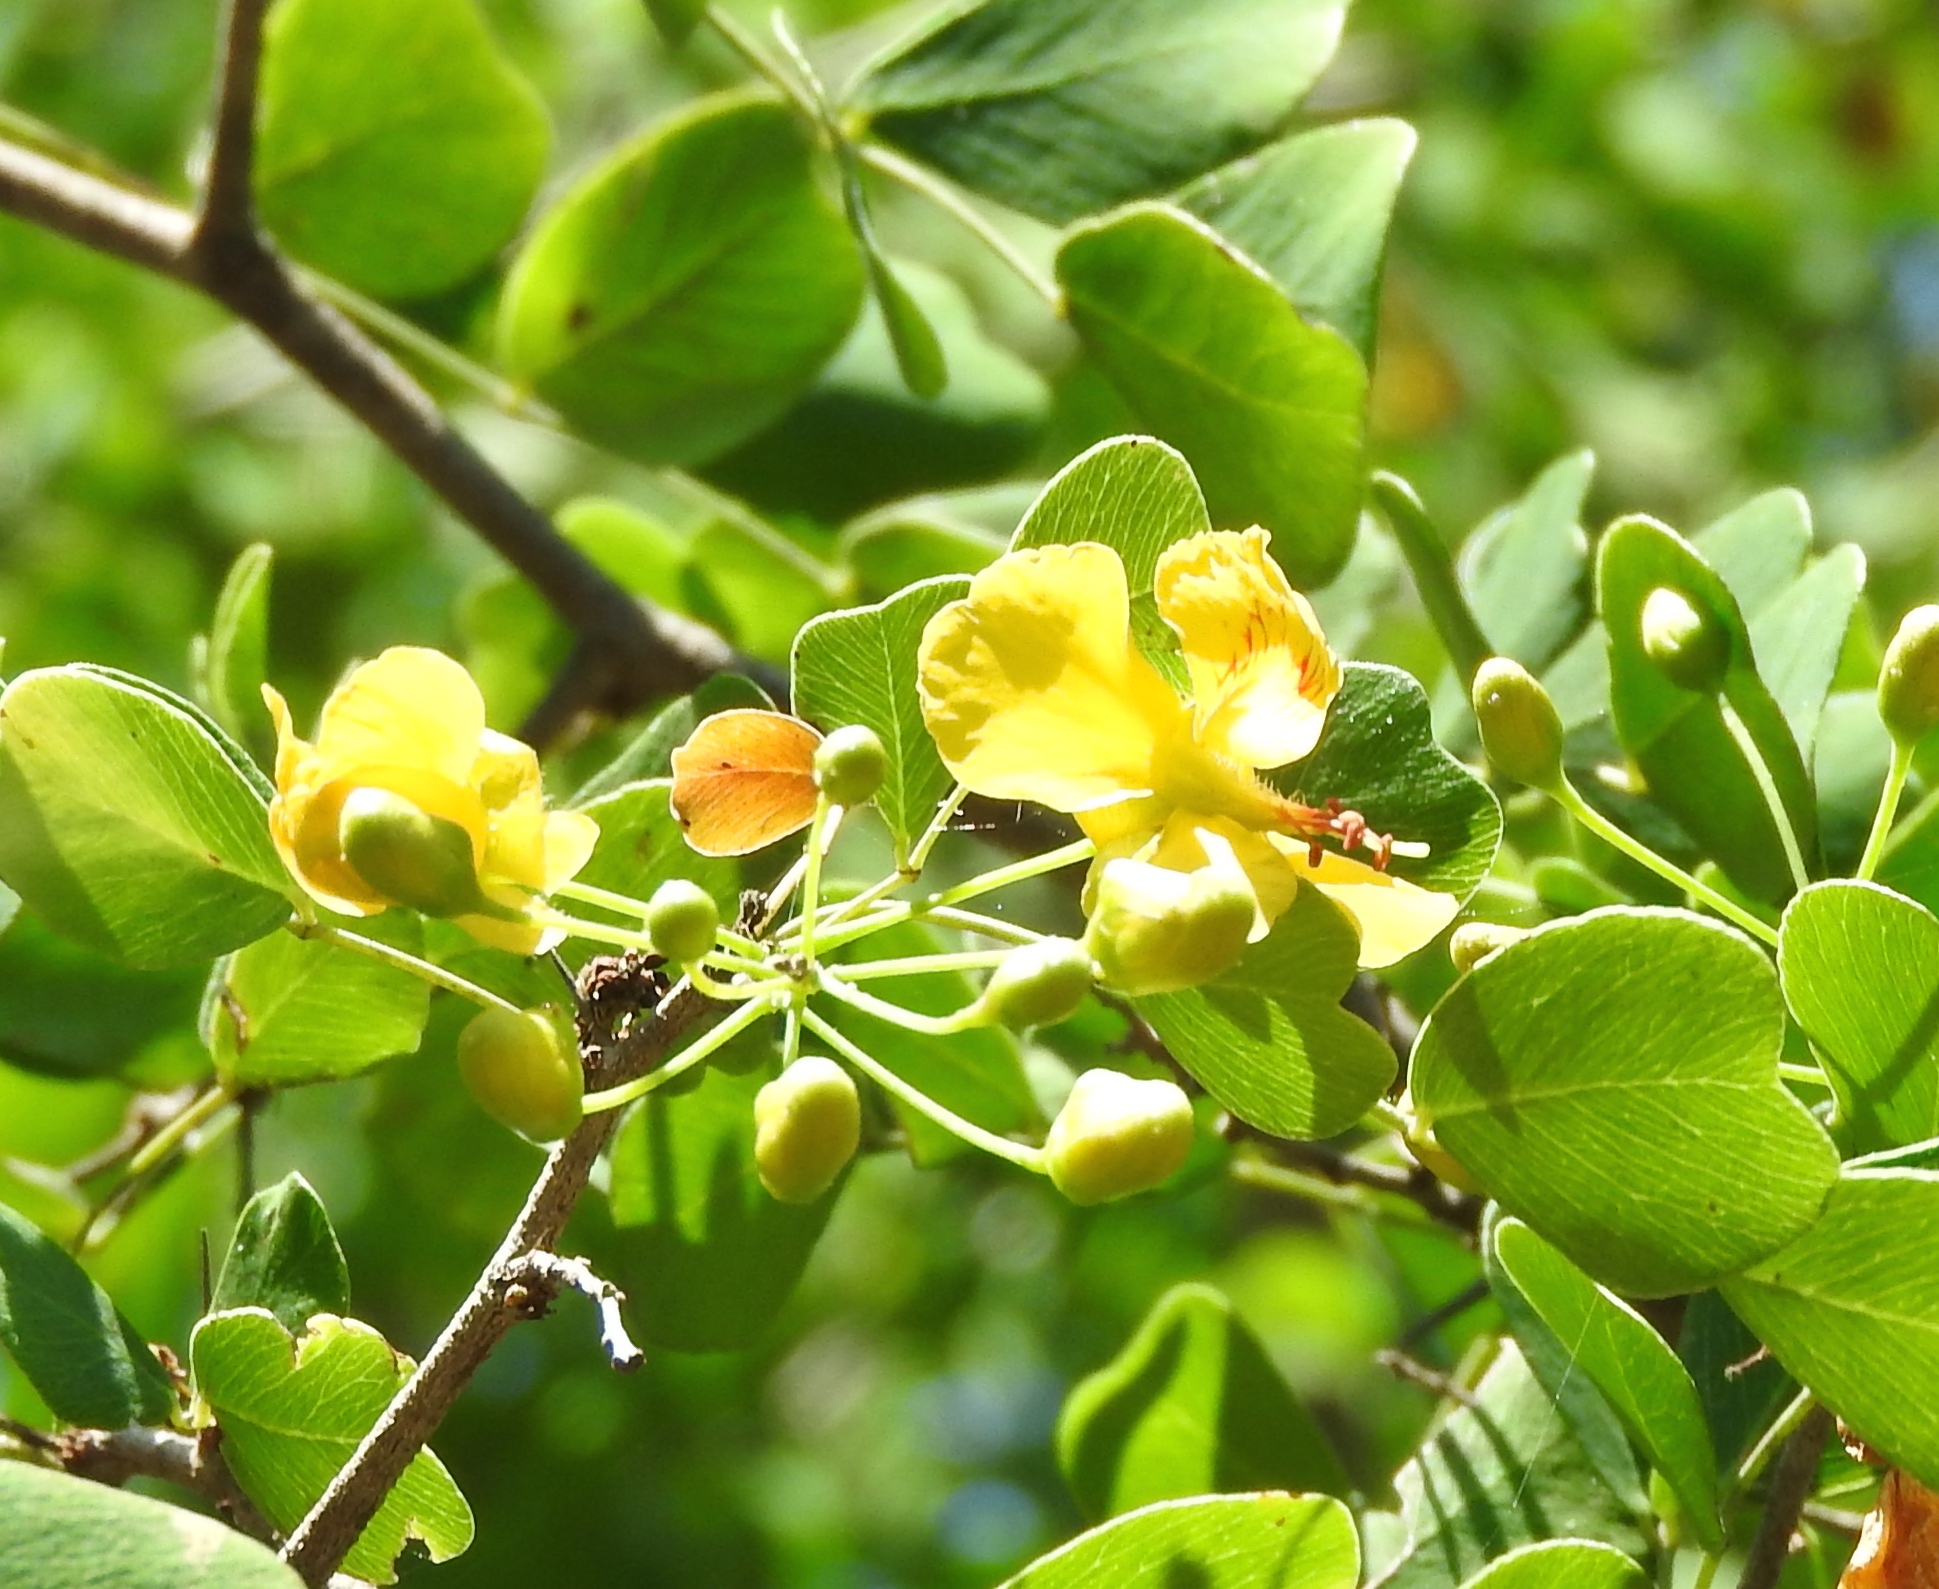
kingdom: Plantae
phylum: Tracheophyta
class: Magnoliopsida
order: Fabales
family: Fabaceae
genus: Haematoxylum
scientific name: Haematoxylum brasiletto
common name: Peachwood
